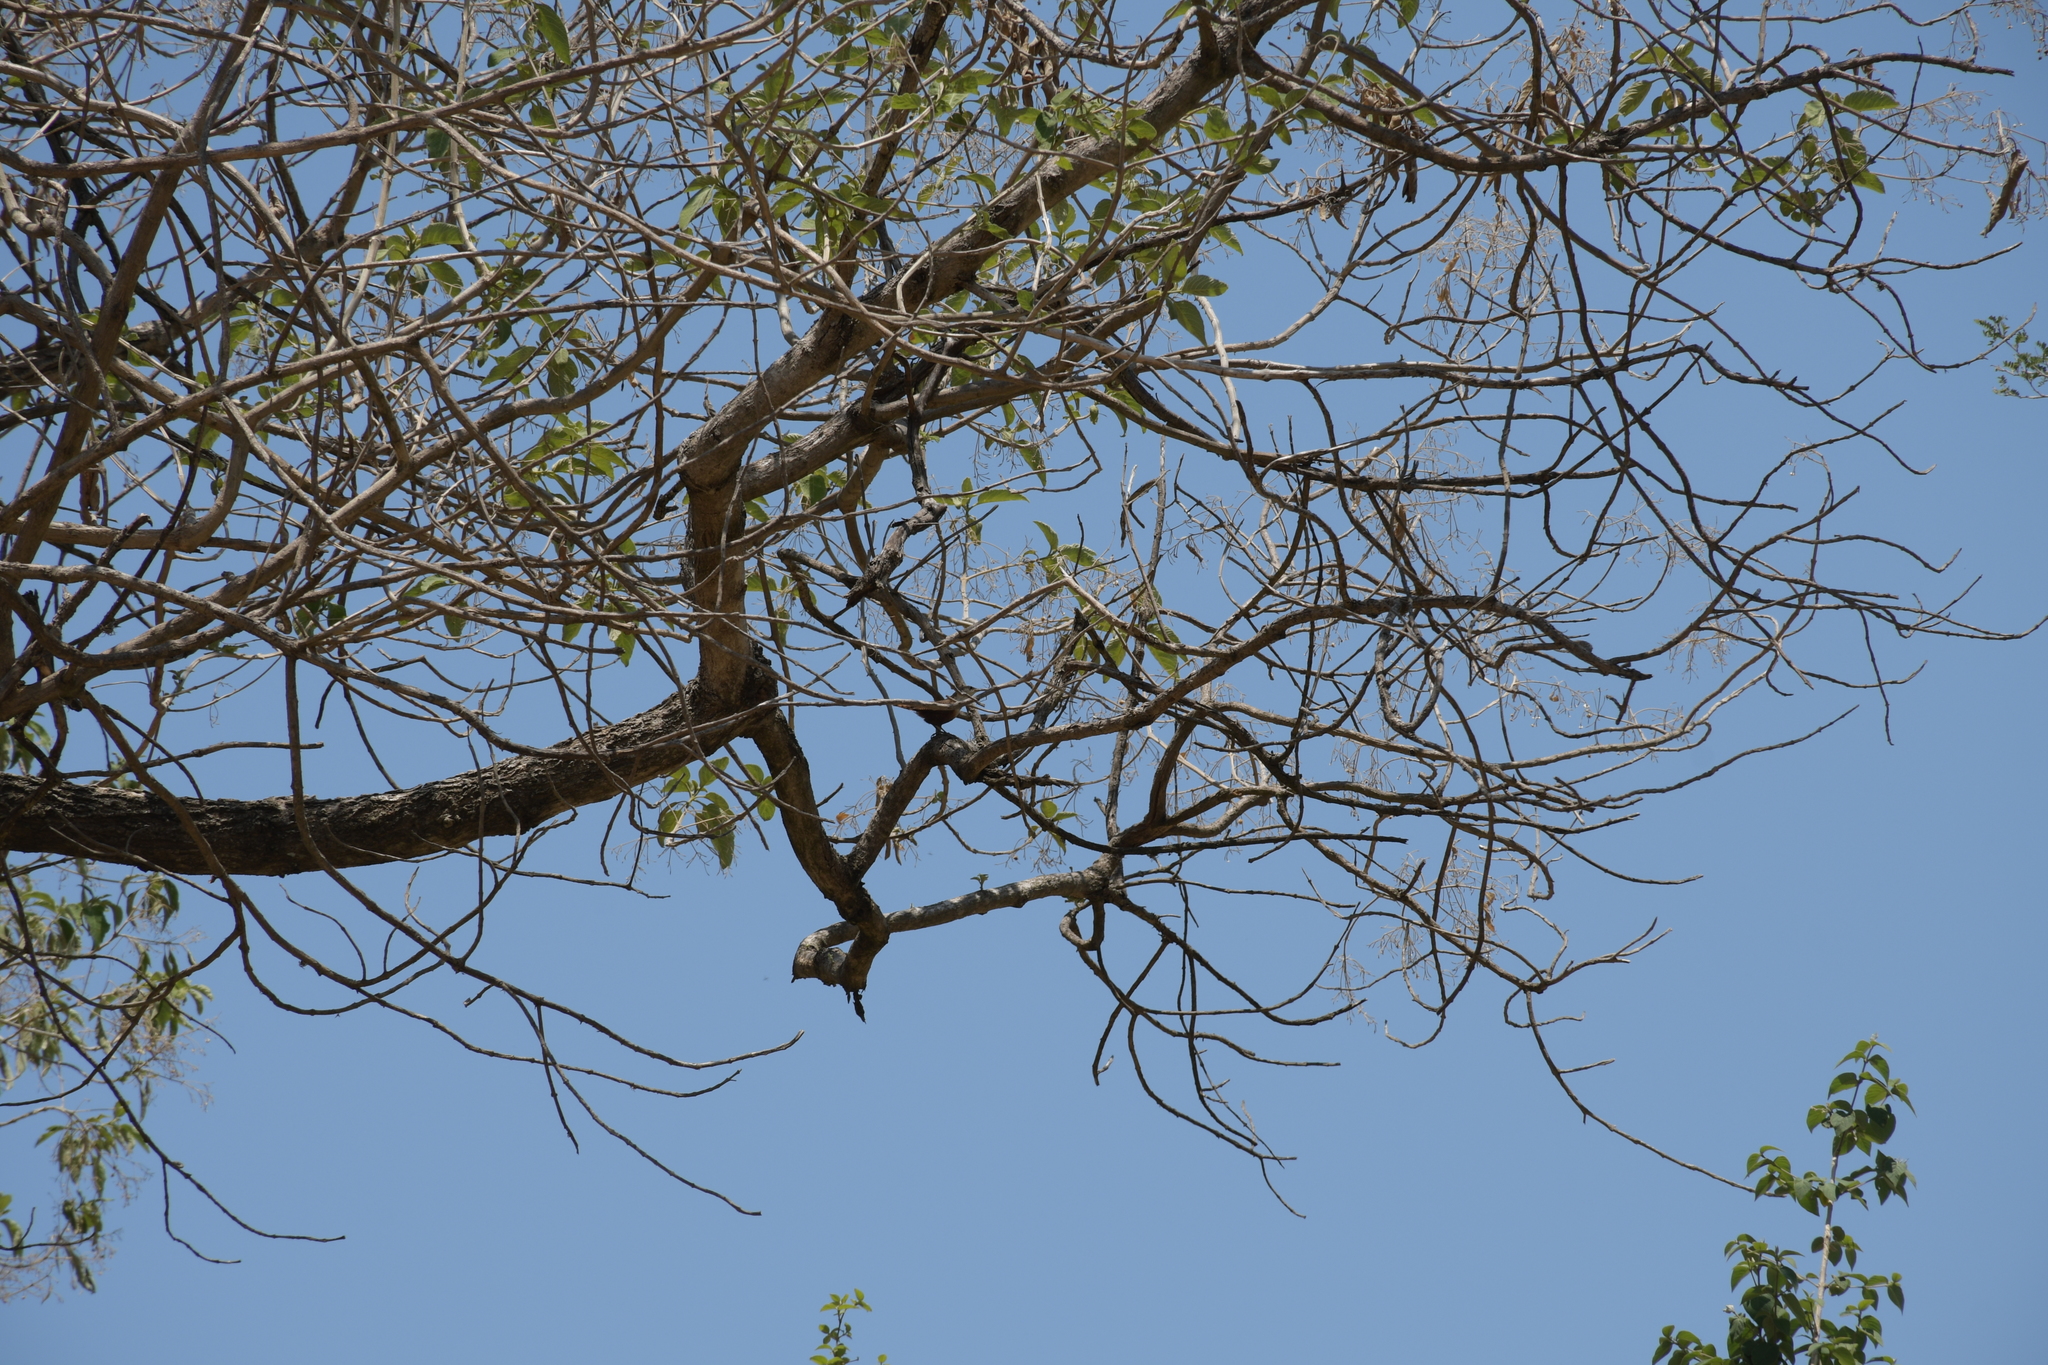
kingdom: Animalia
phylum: Chordata
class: Aves
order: Passeriformes
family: Troglodytidae
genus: Catherpes
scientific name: Catherpes mexicanus
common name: Canyon wren
